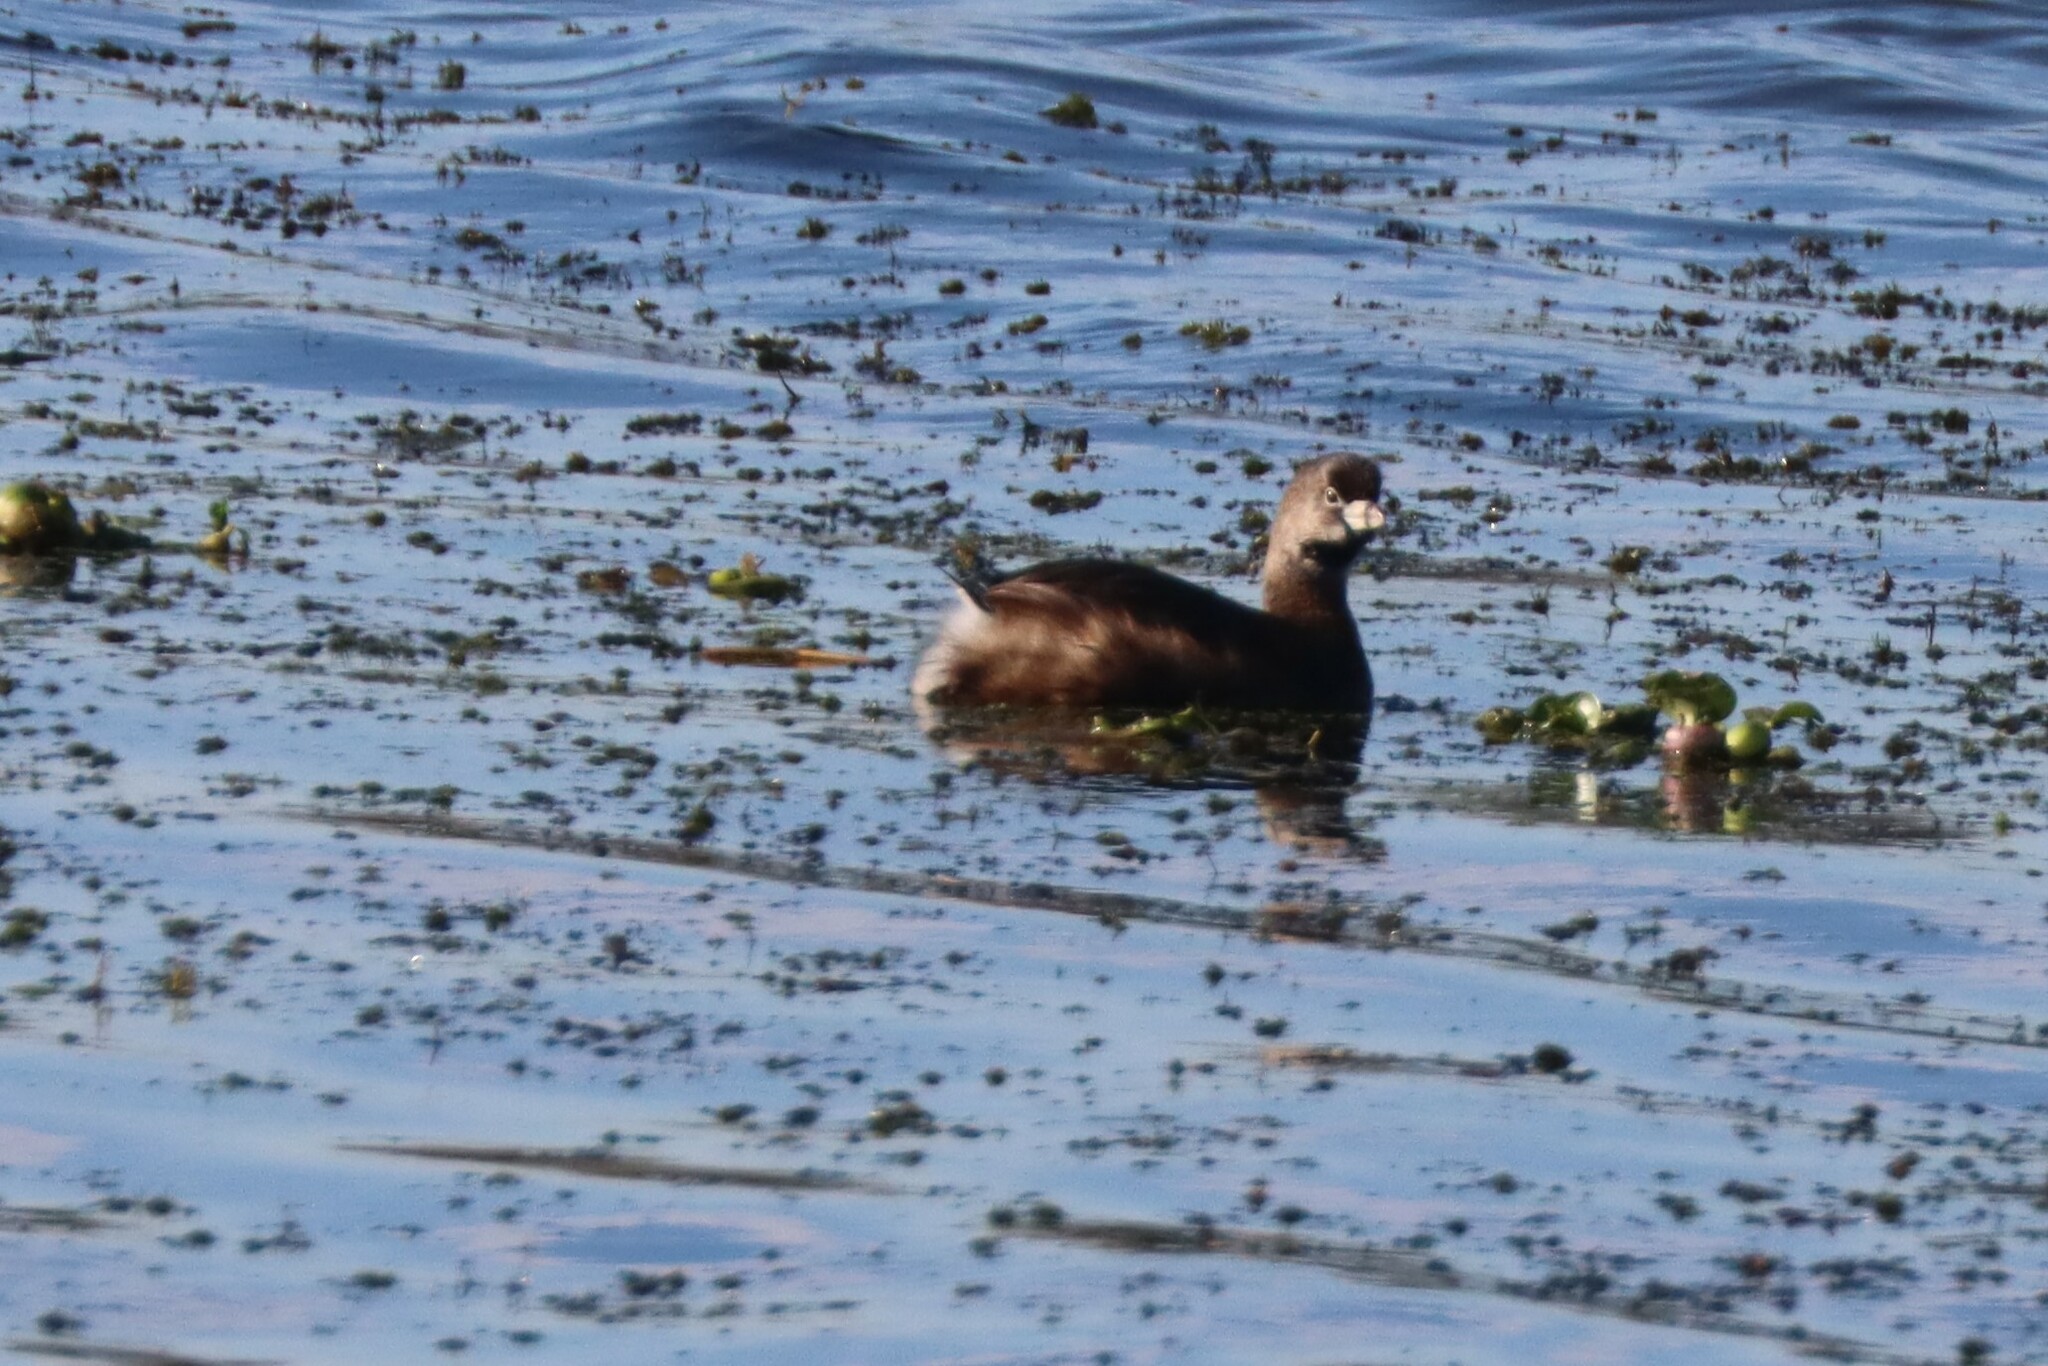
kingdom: Animalia
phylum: Chordata
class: Aves
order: Podicipediformes
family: Podicipedidae
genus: Podilymbus
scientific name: Podilymbus podiceps
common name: Pied-billed grebe
